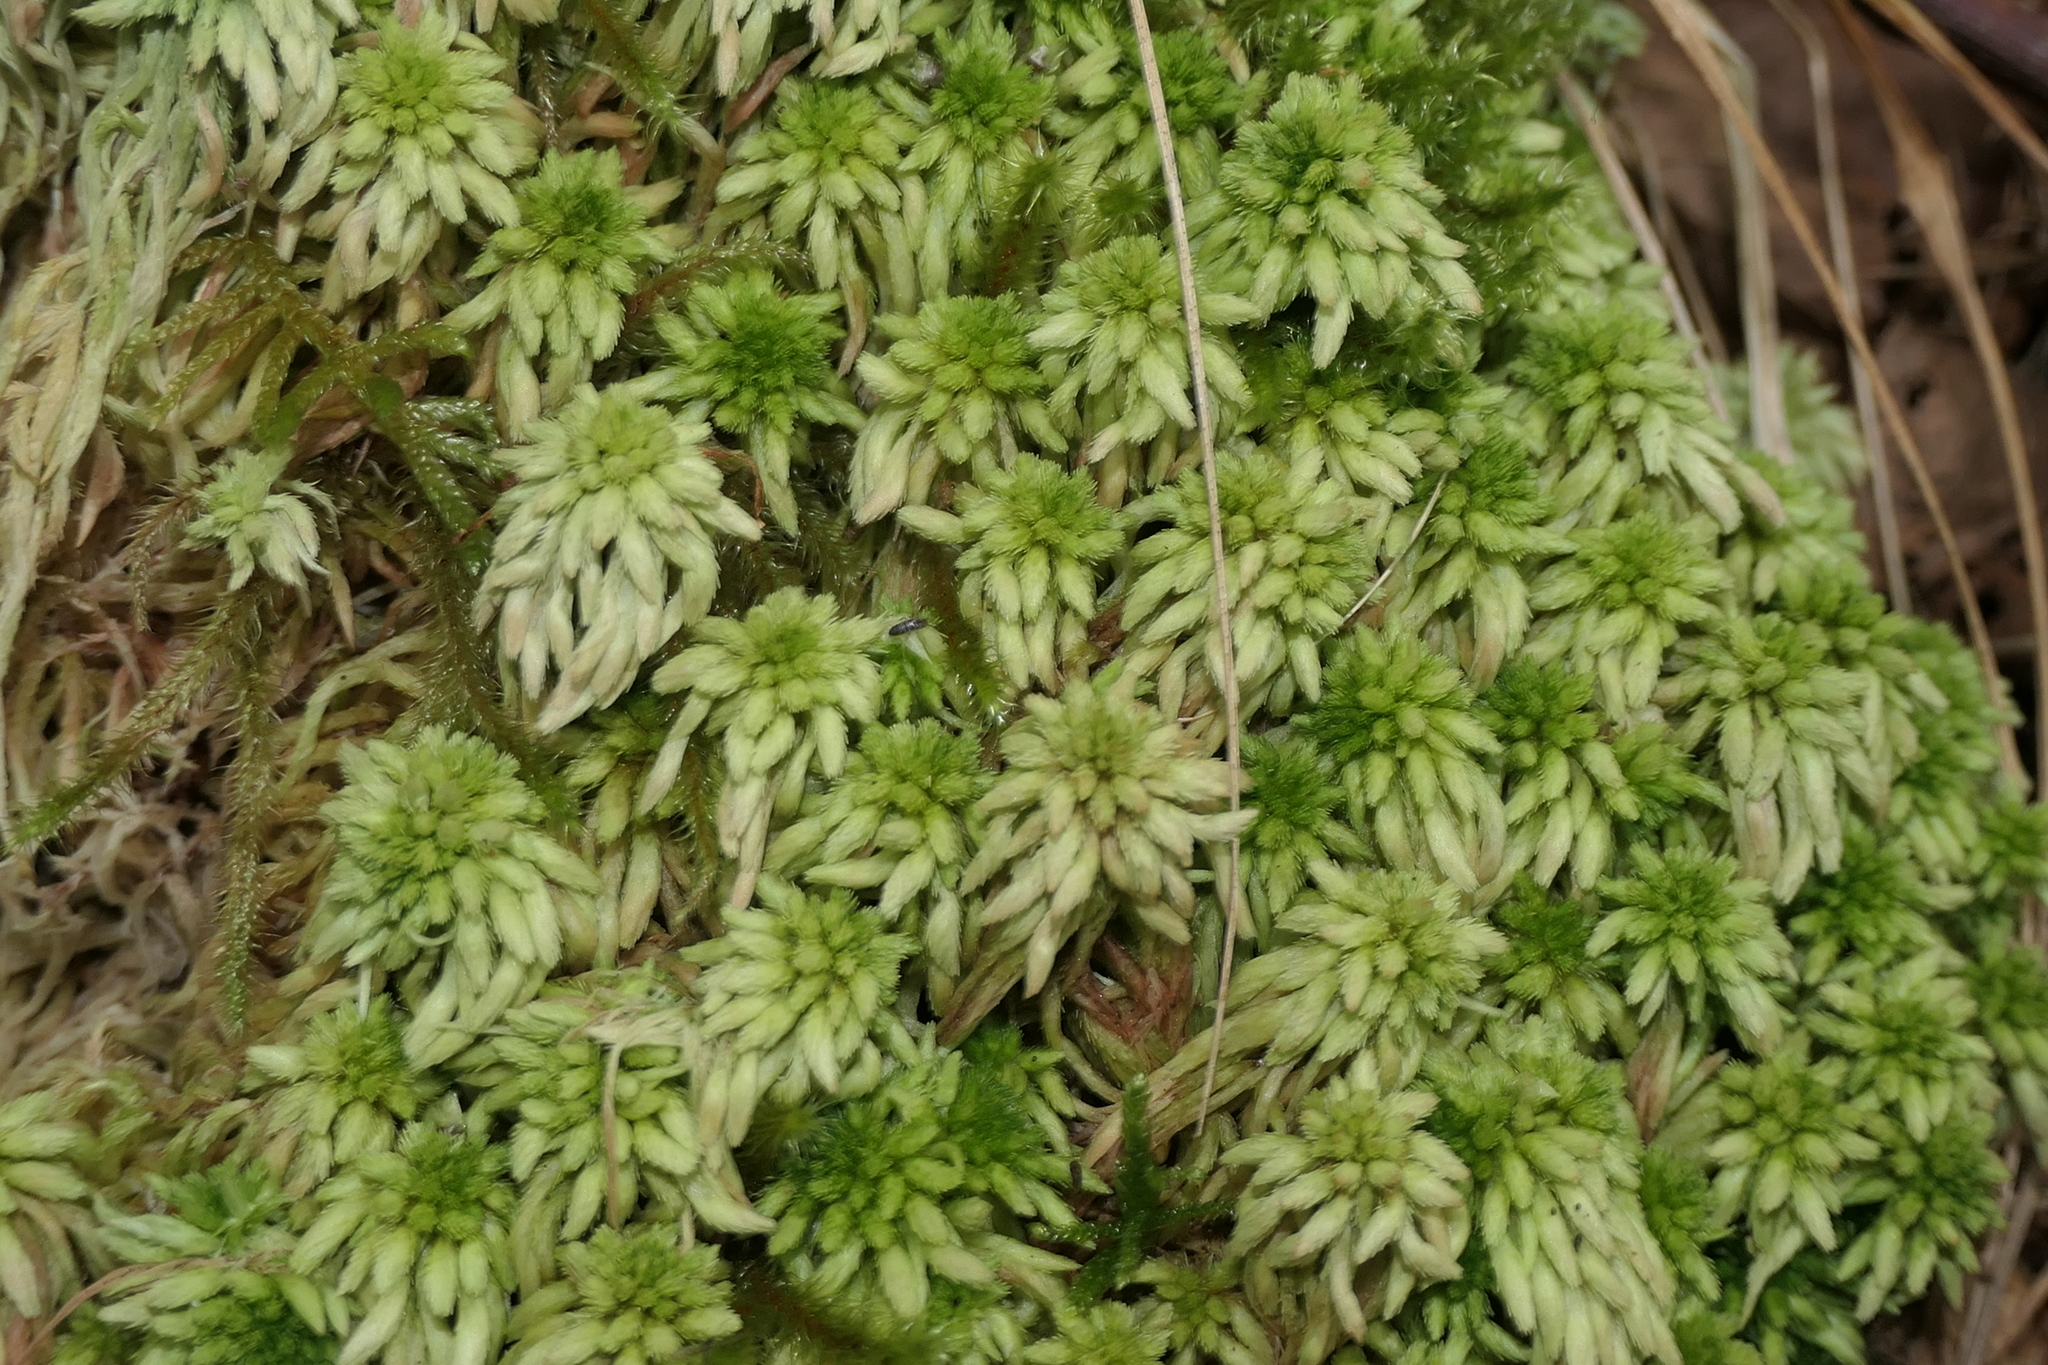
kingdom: Plantae
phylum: Bryophyta
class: Sphagnopsida
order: Sphagnales
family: Sphagnaceae
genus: Sphagnum
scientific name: Sphagnum subnitens
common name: Lustrous bog-moss
